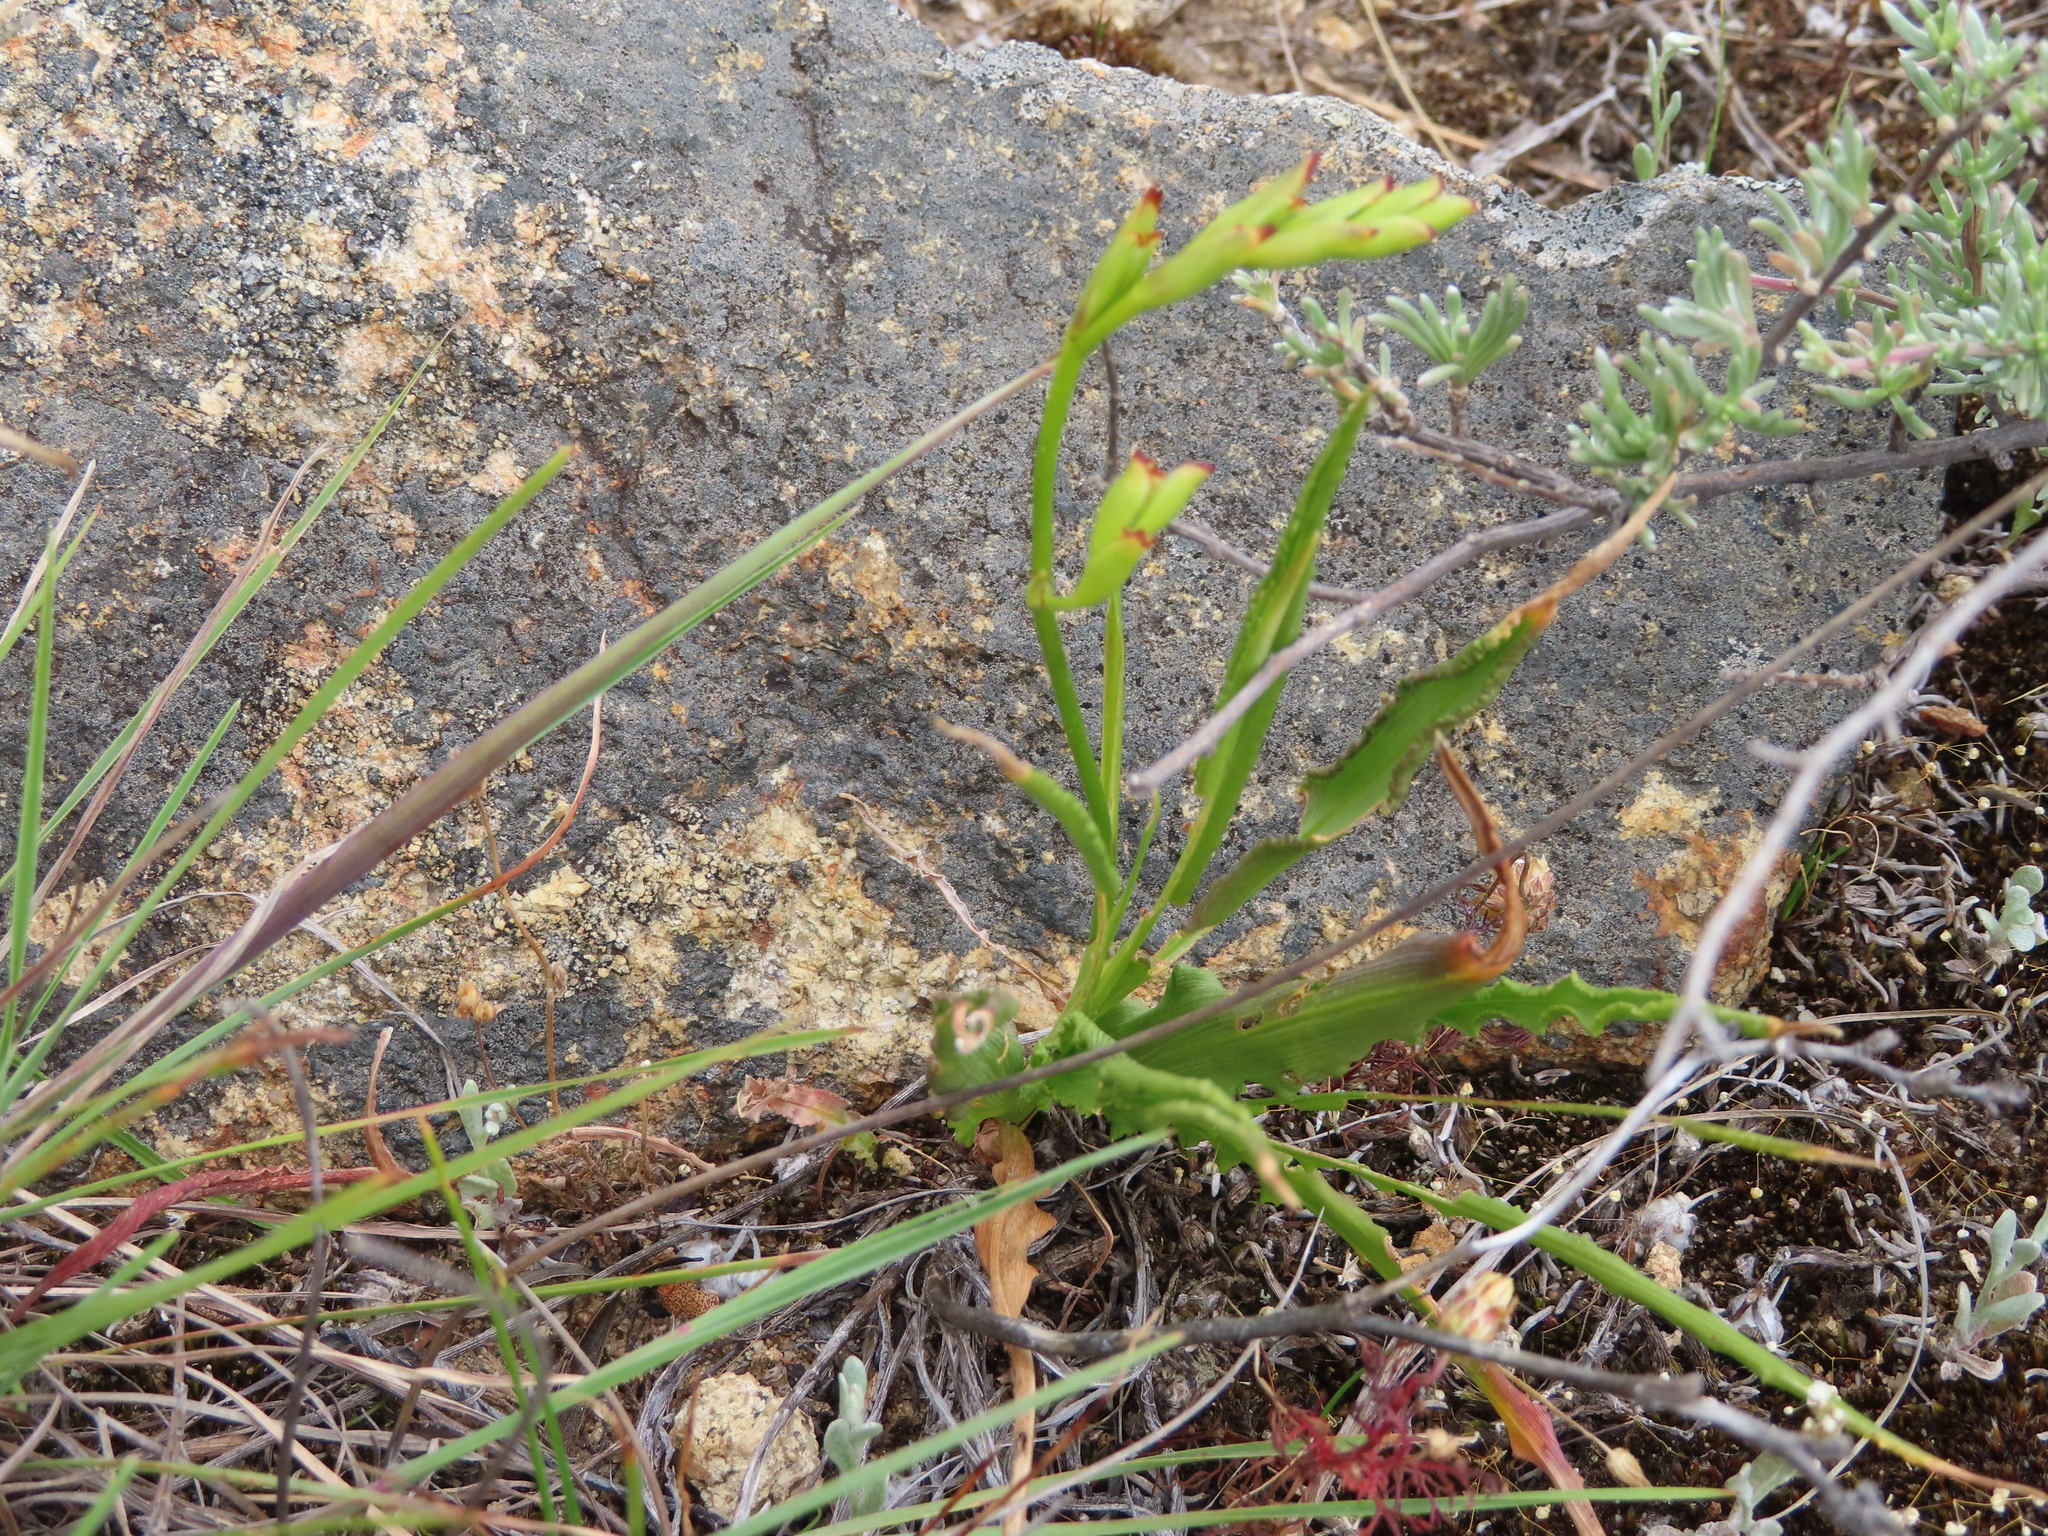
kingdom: Plantae
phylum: Tracheophyta
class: Liliopsida
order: Asparagales
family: Iridaceae
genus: Tritonia
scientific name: Tritonia undulata
